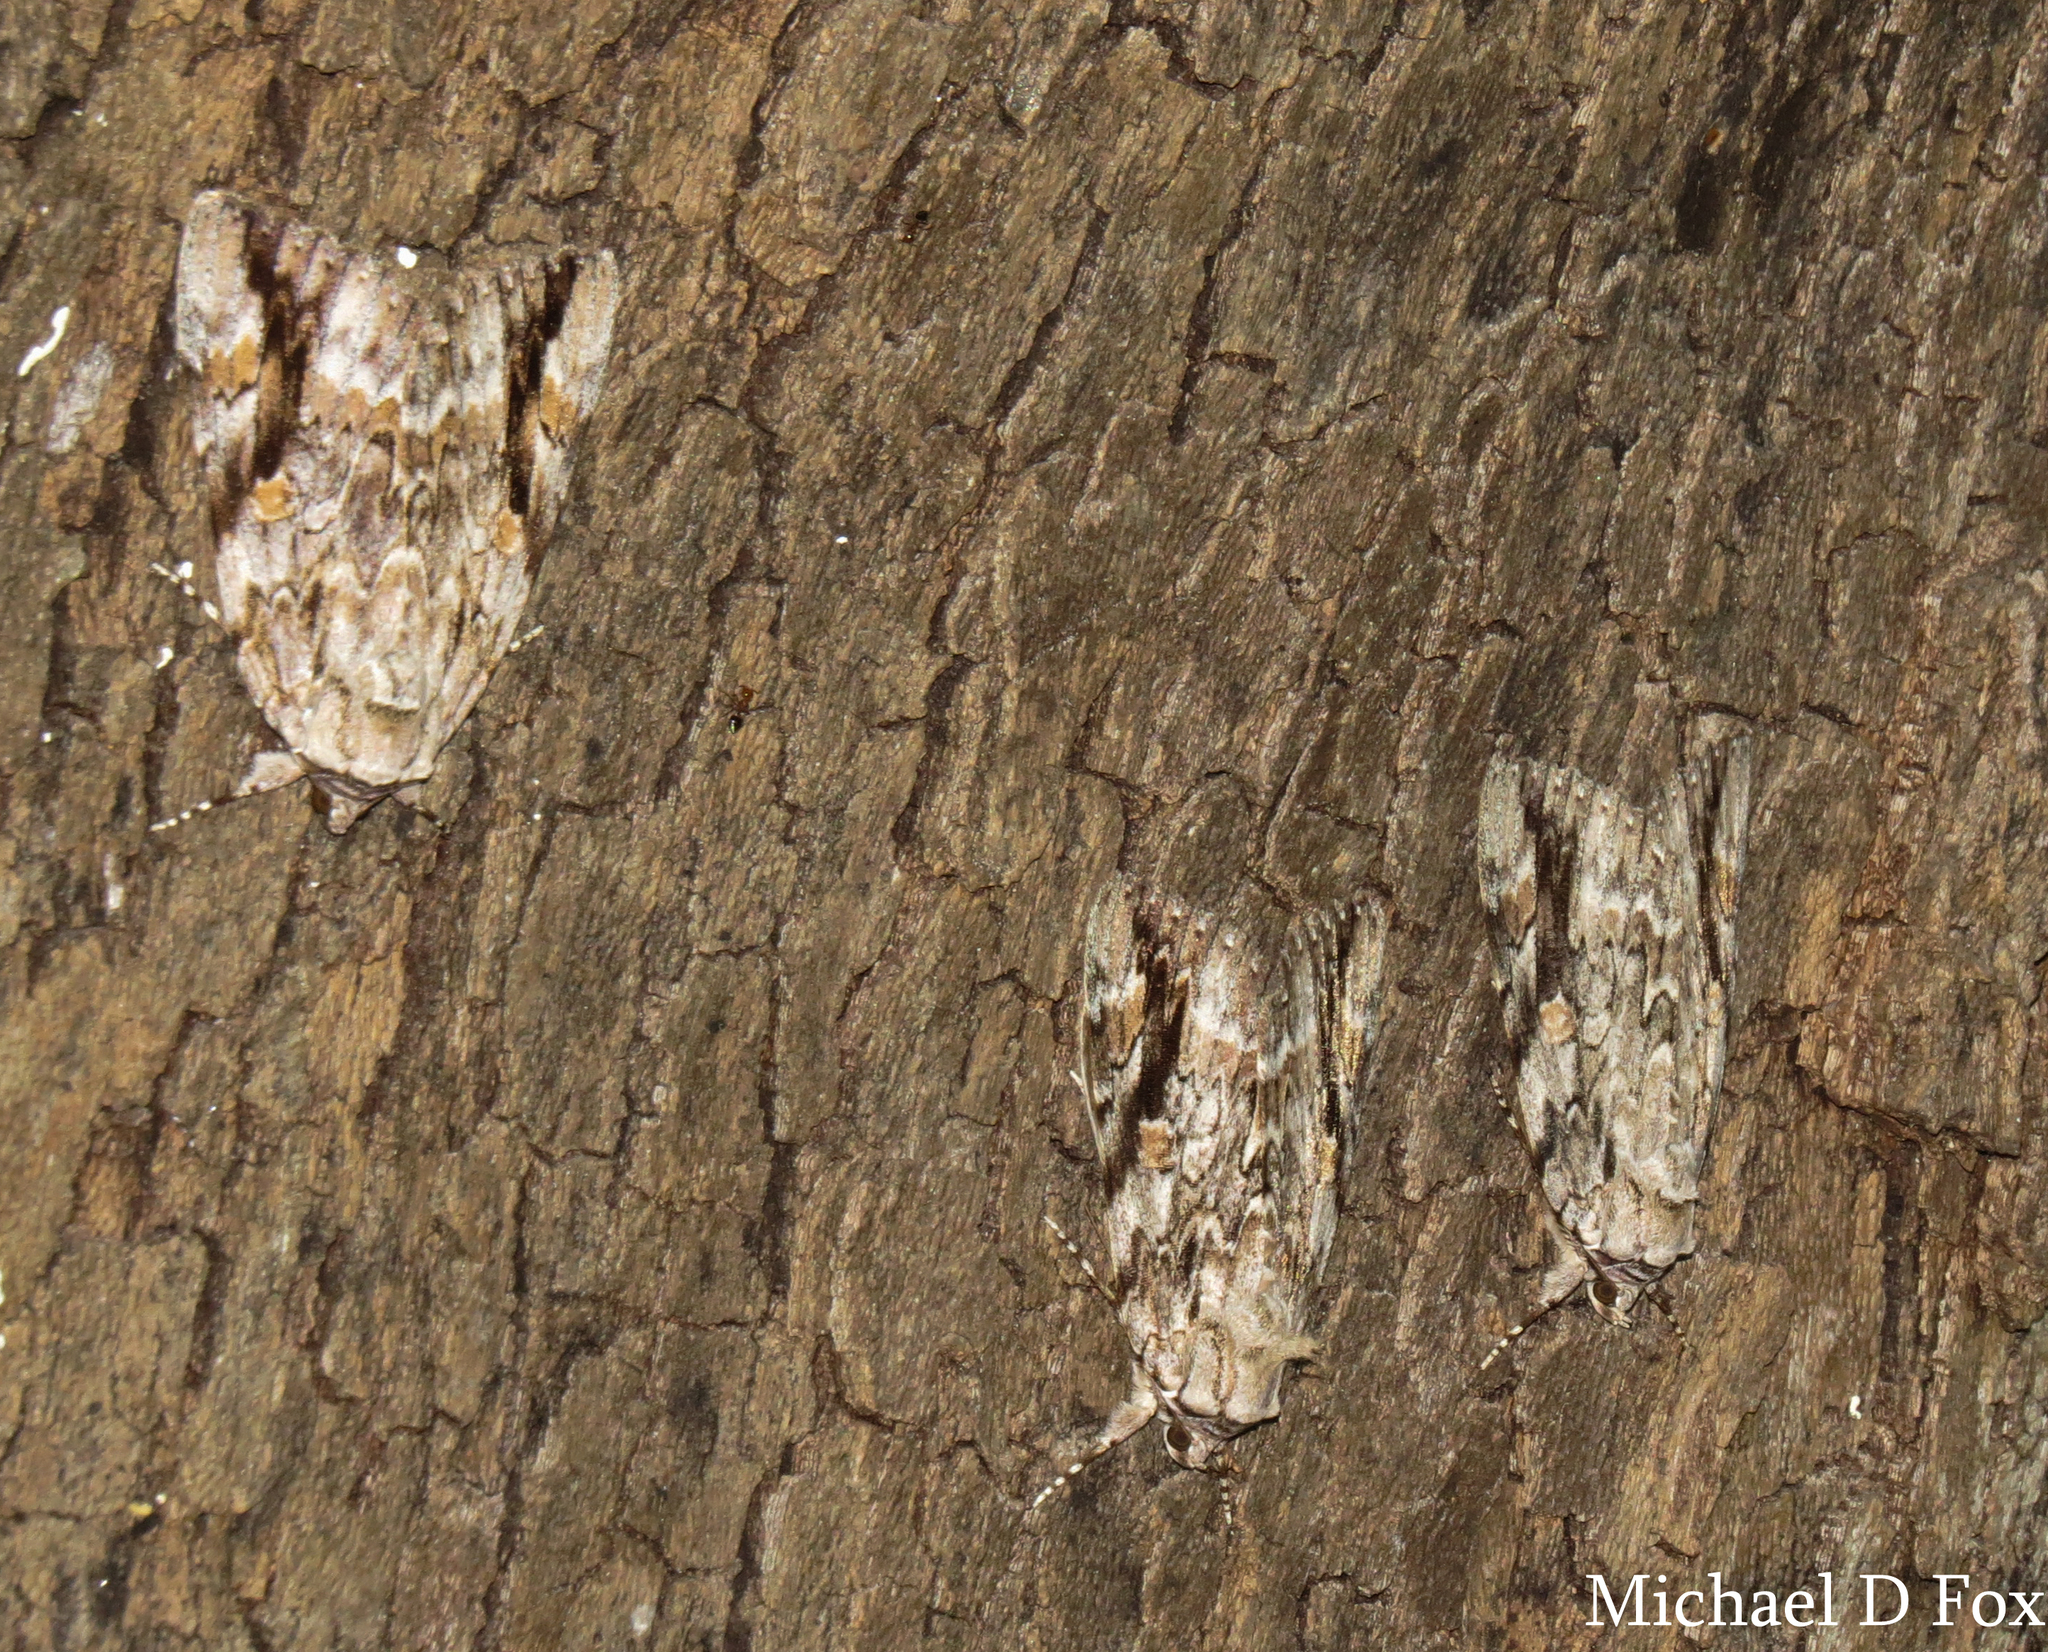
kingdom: Animalia
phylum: Arthropoda
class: Insecta
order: Lepidoptera
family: Erebidae
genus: Catocala
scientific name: Catocala maestosa
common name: Sad underwing
